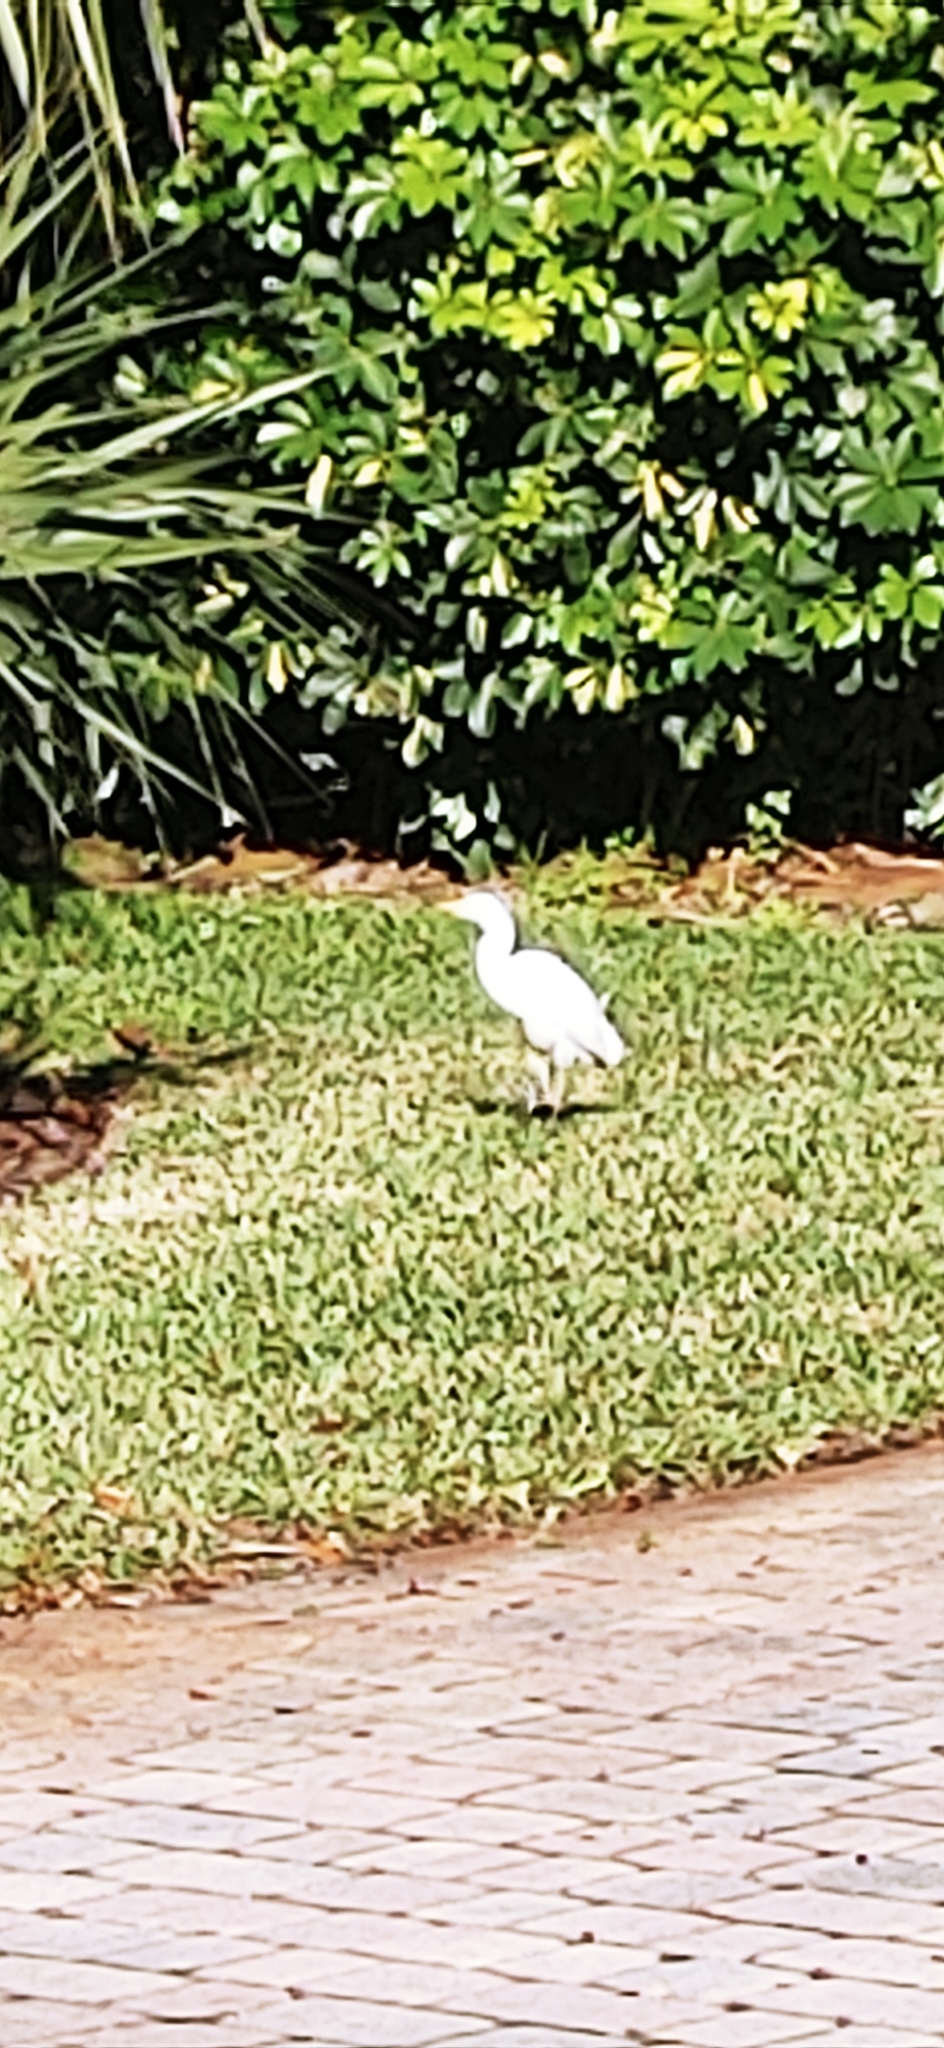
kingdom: Animalia
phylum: Chordata
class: Aves
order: Pelecaniformes
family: Ardeidae
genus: Bubulcus
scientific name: Bubulcus ibis
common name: Cattle egret
